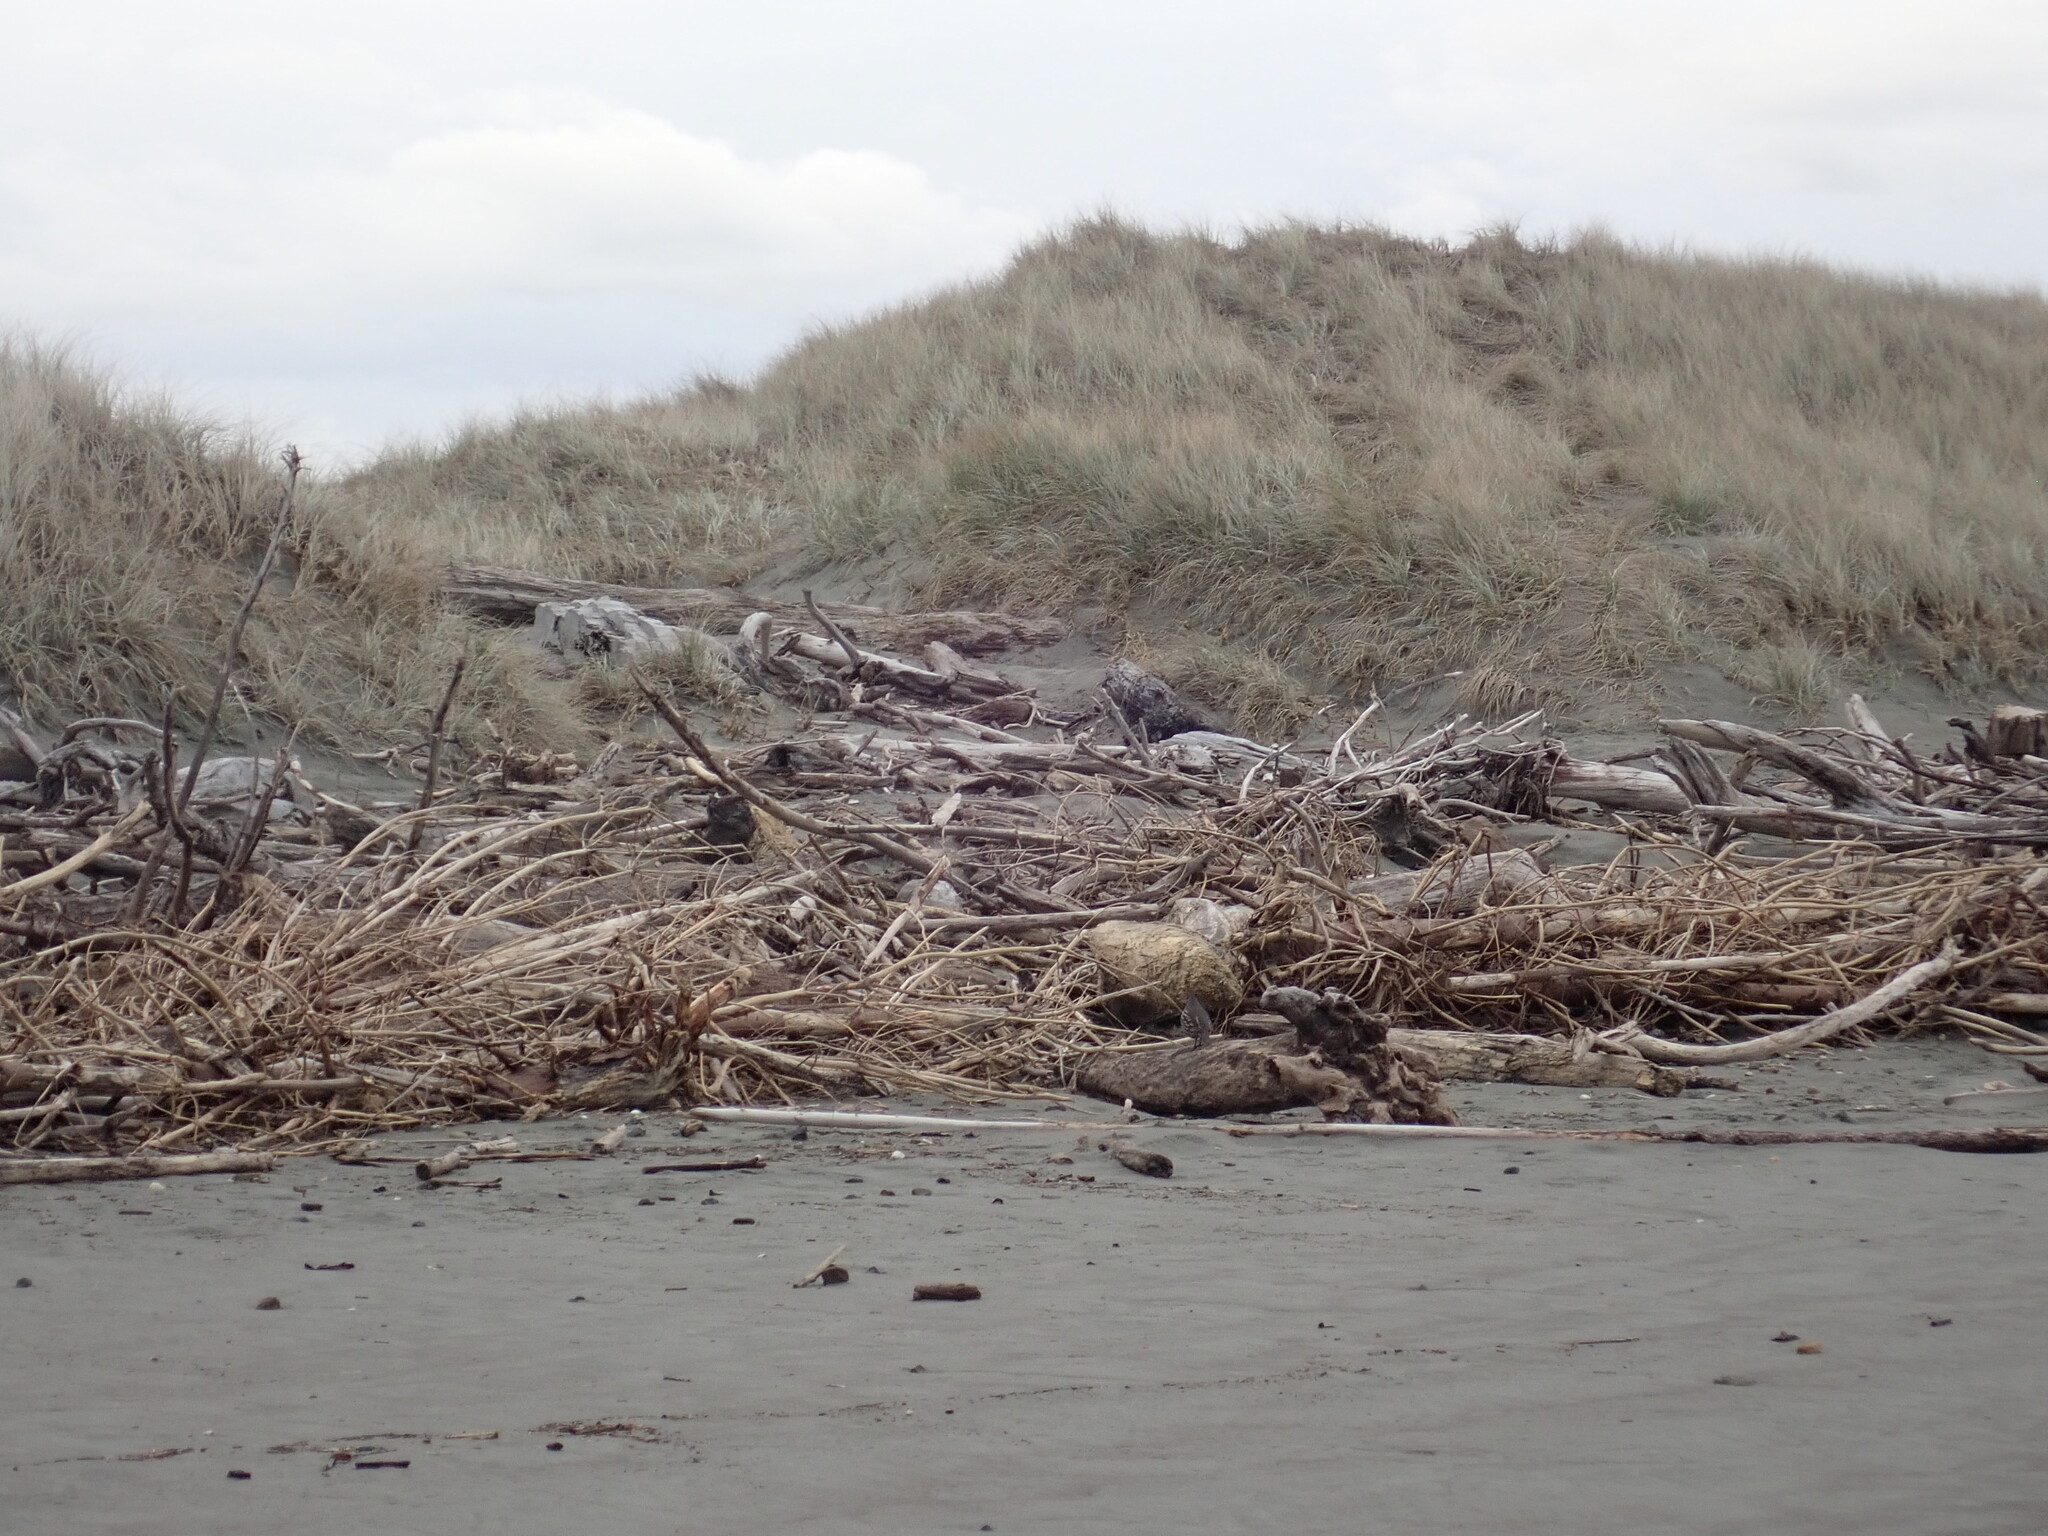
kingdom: Animalia
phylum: Chordata
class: Aves
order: Galliformes
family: Odontophoridae
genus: Callipepla
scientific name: Callipepla californica
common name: California quail
